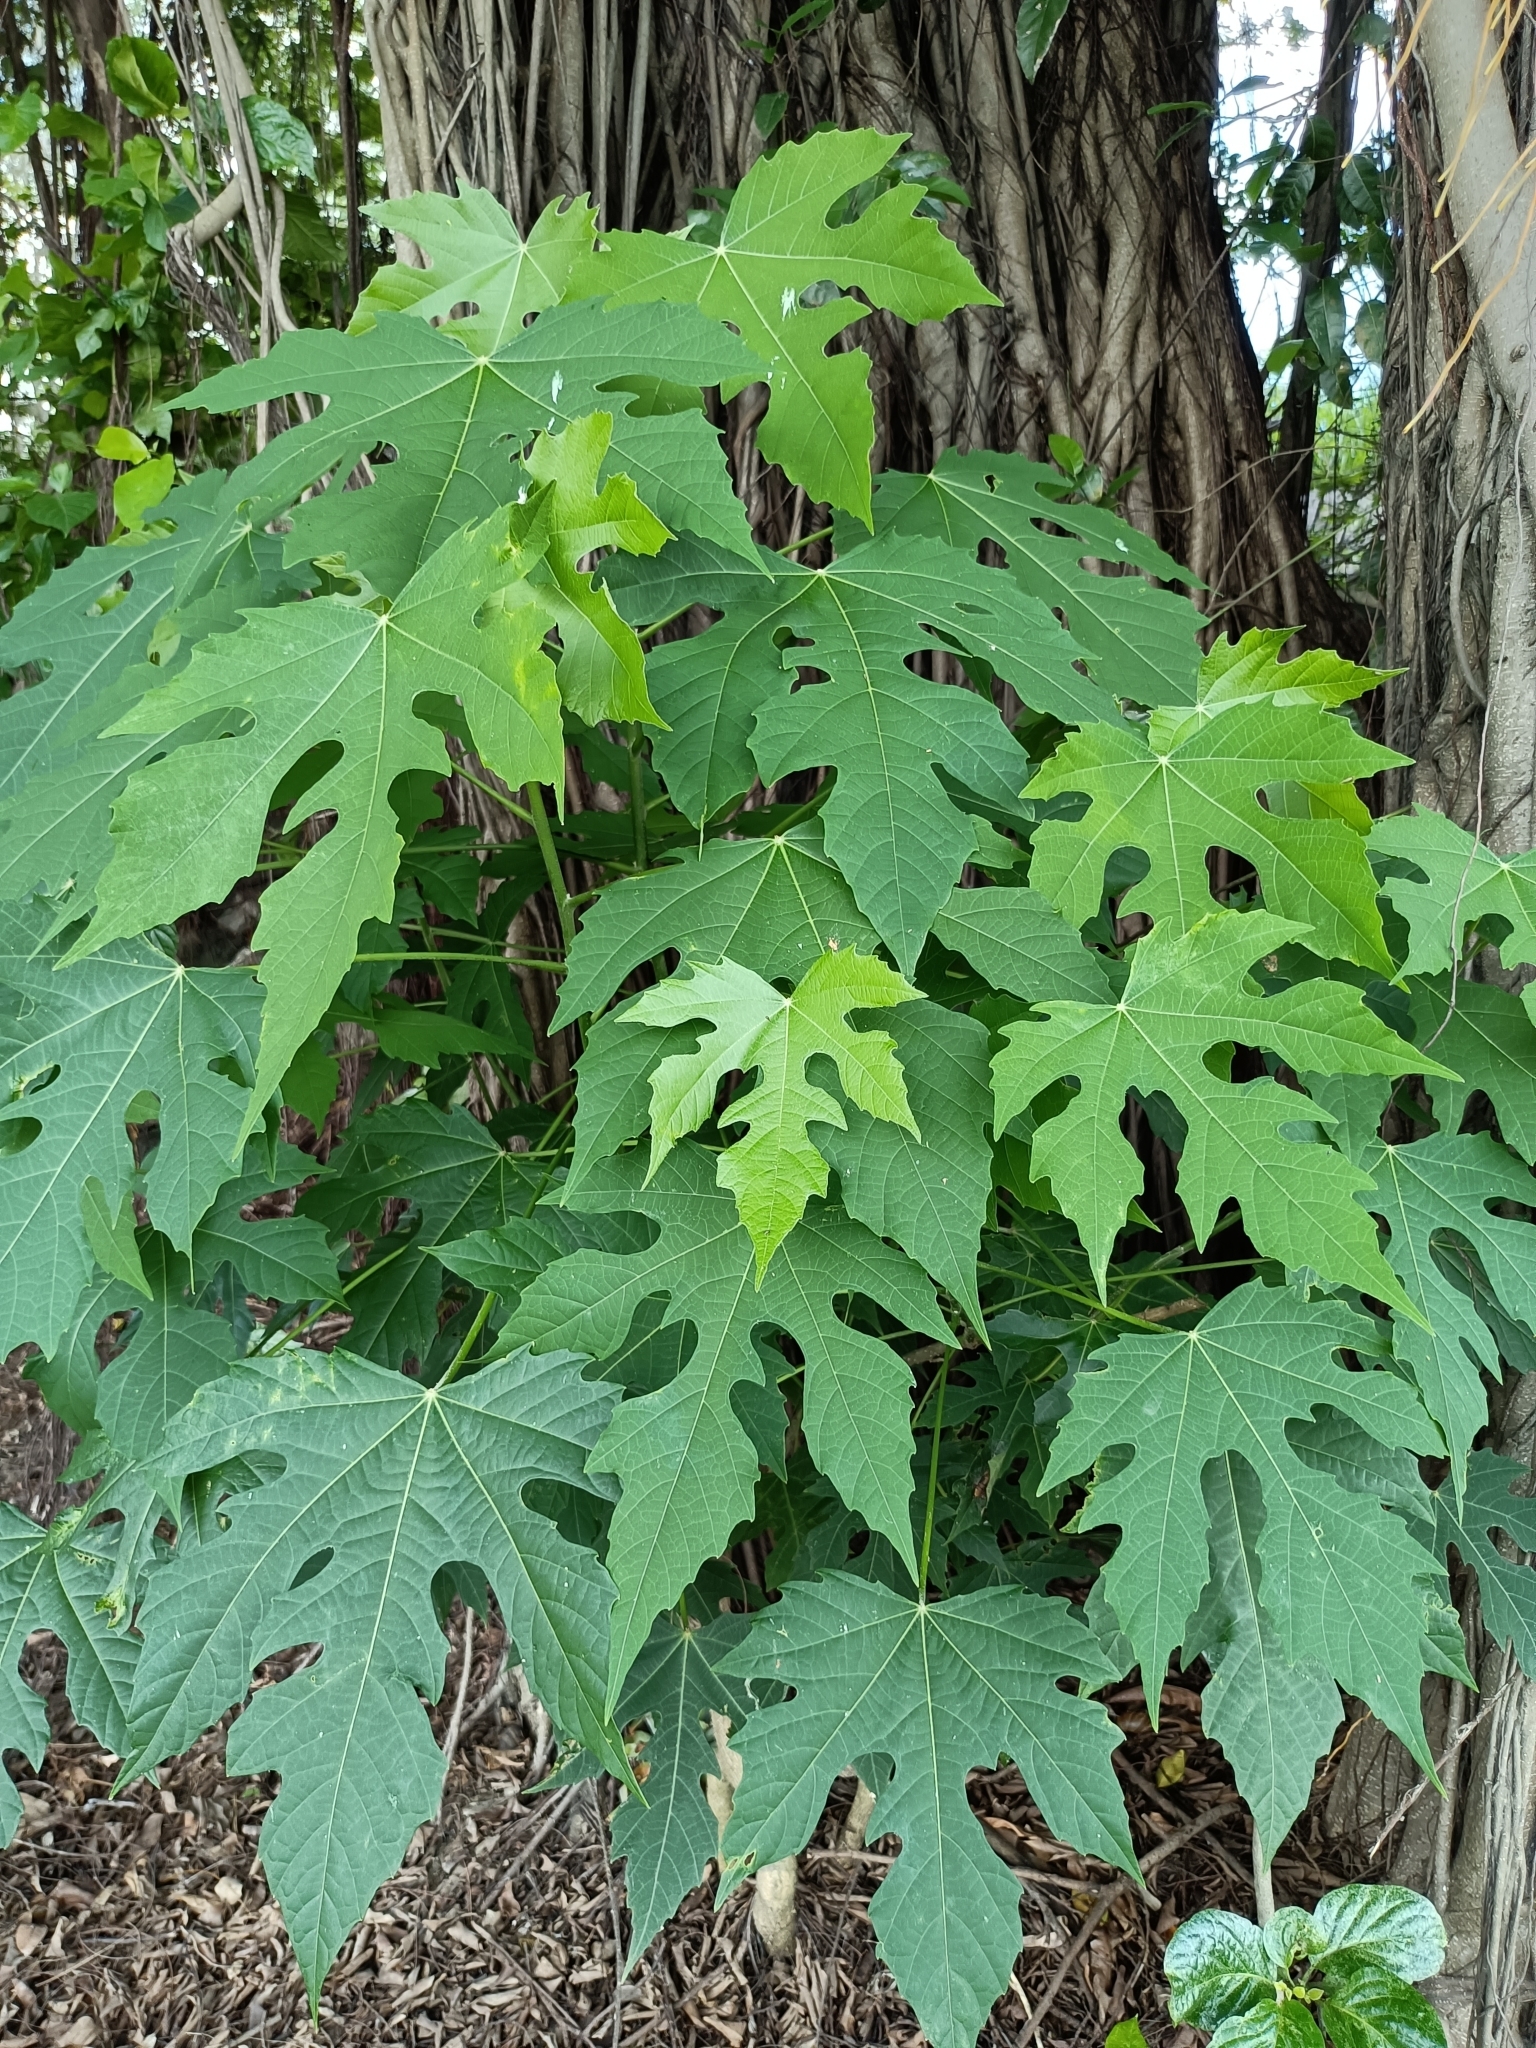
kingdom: Plantae
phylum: Tracheophyta
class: Magnoliopsida
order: Malpighiales
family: Euphorbiaceae
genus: Melanolepis
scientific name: Melanolepis multiglandulosa
